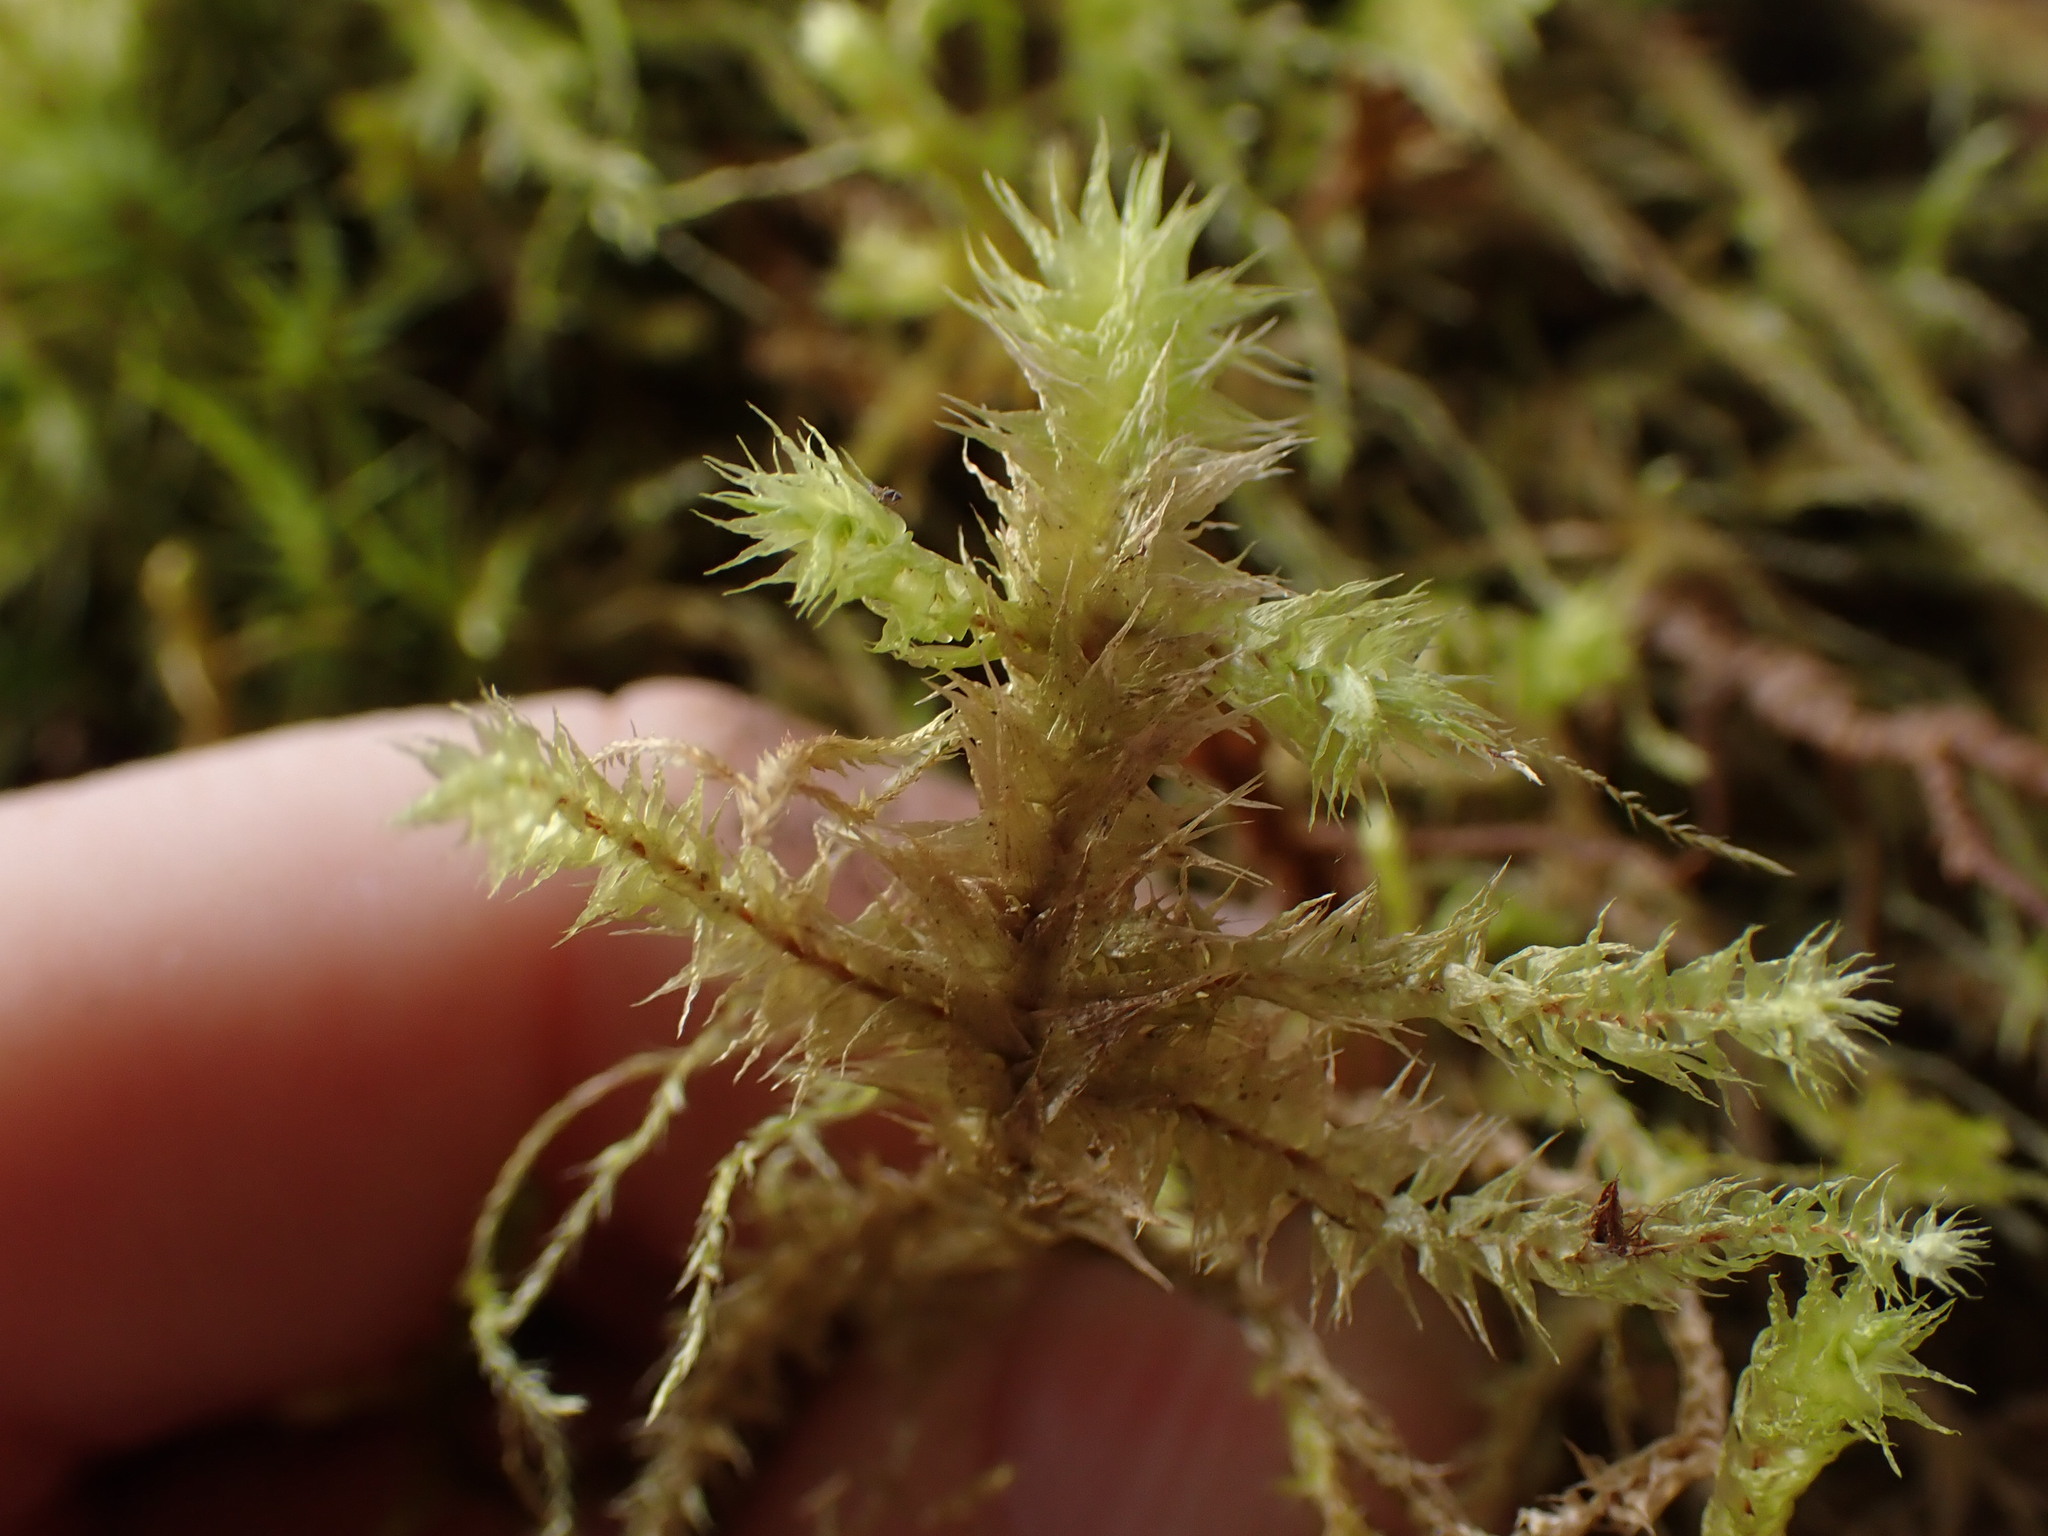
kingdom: Plantae
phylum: Bryophyta
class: Bryopsida
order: Hypnales
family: Hylocomiaceae
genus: Hylocomiadelphus
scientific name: Hylocomiadelphus triquetrus
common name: Rough goose neck moss
